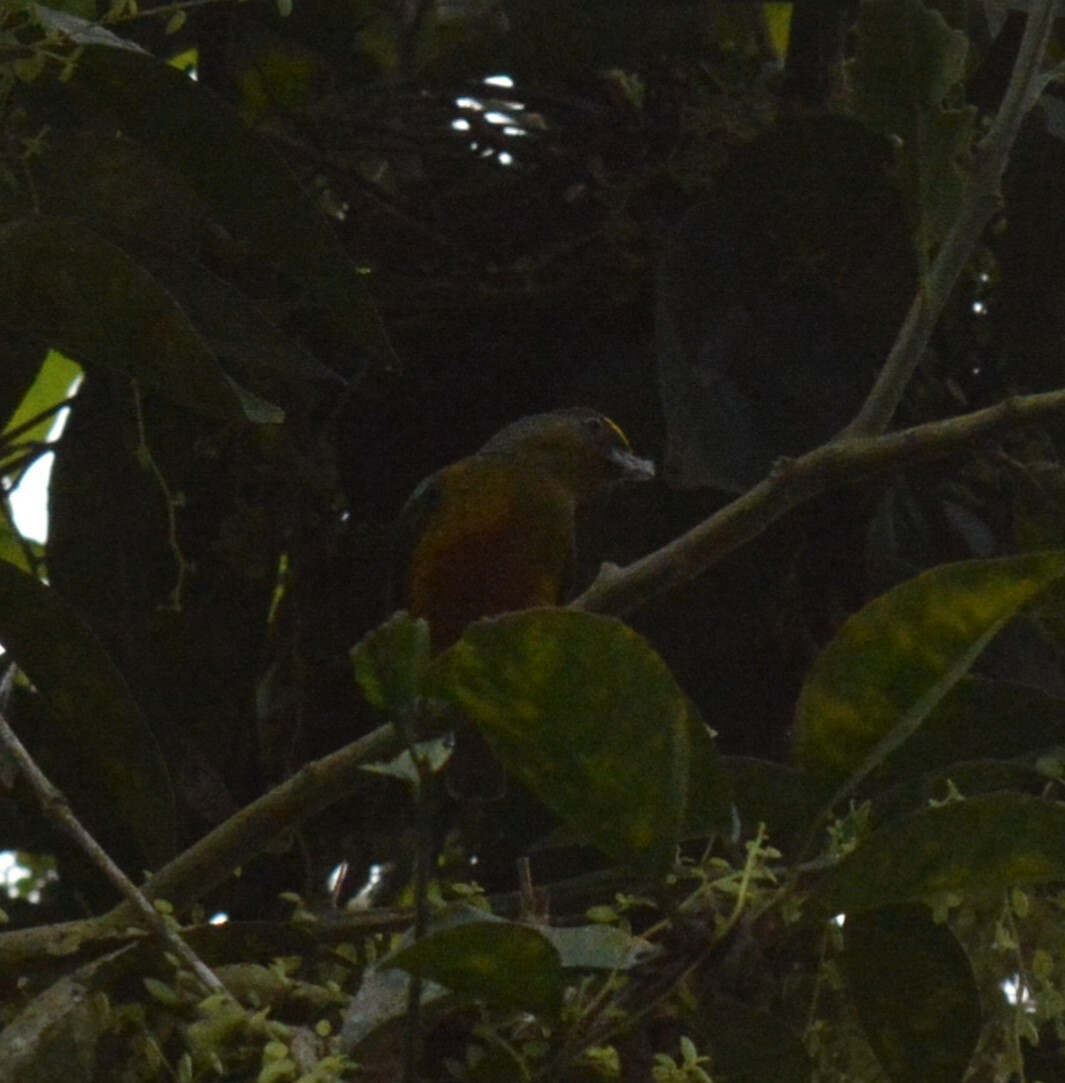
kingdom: Animalia
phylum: Chordata
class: Aves
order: Passeriformes
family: Fringillidae
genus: Euphonia
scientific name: Euphonia gouldi
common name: Olive-backed euphonia
